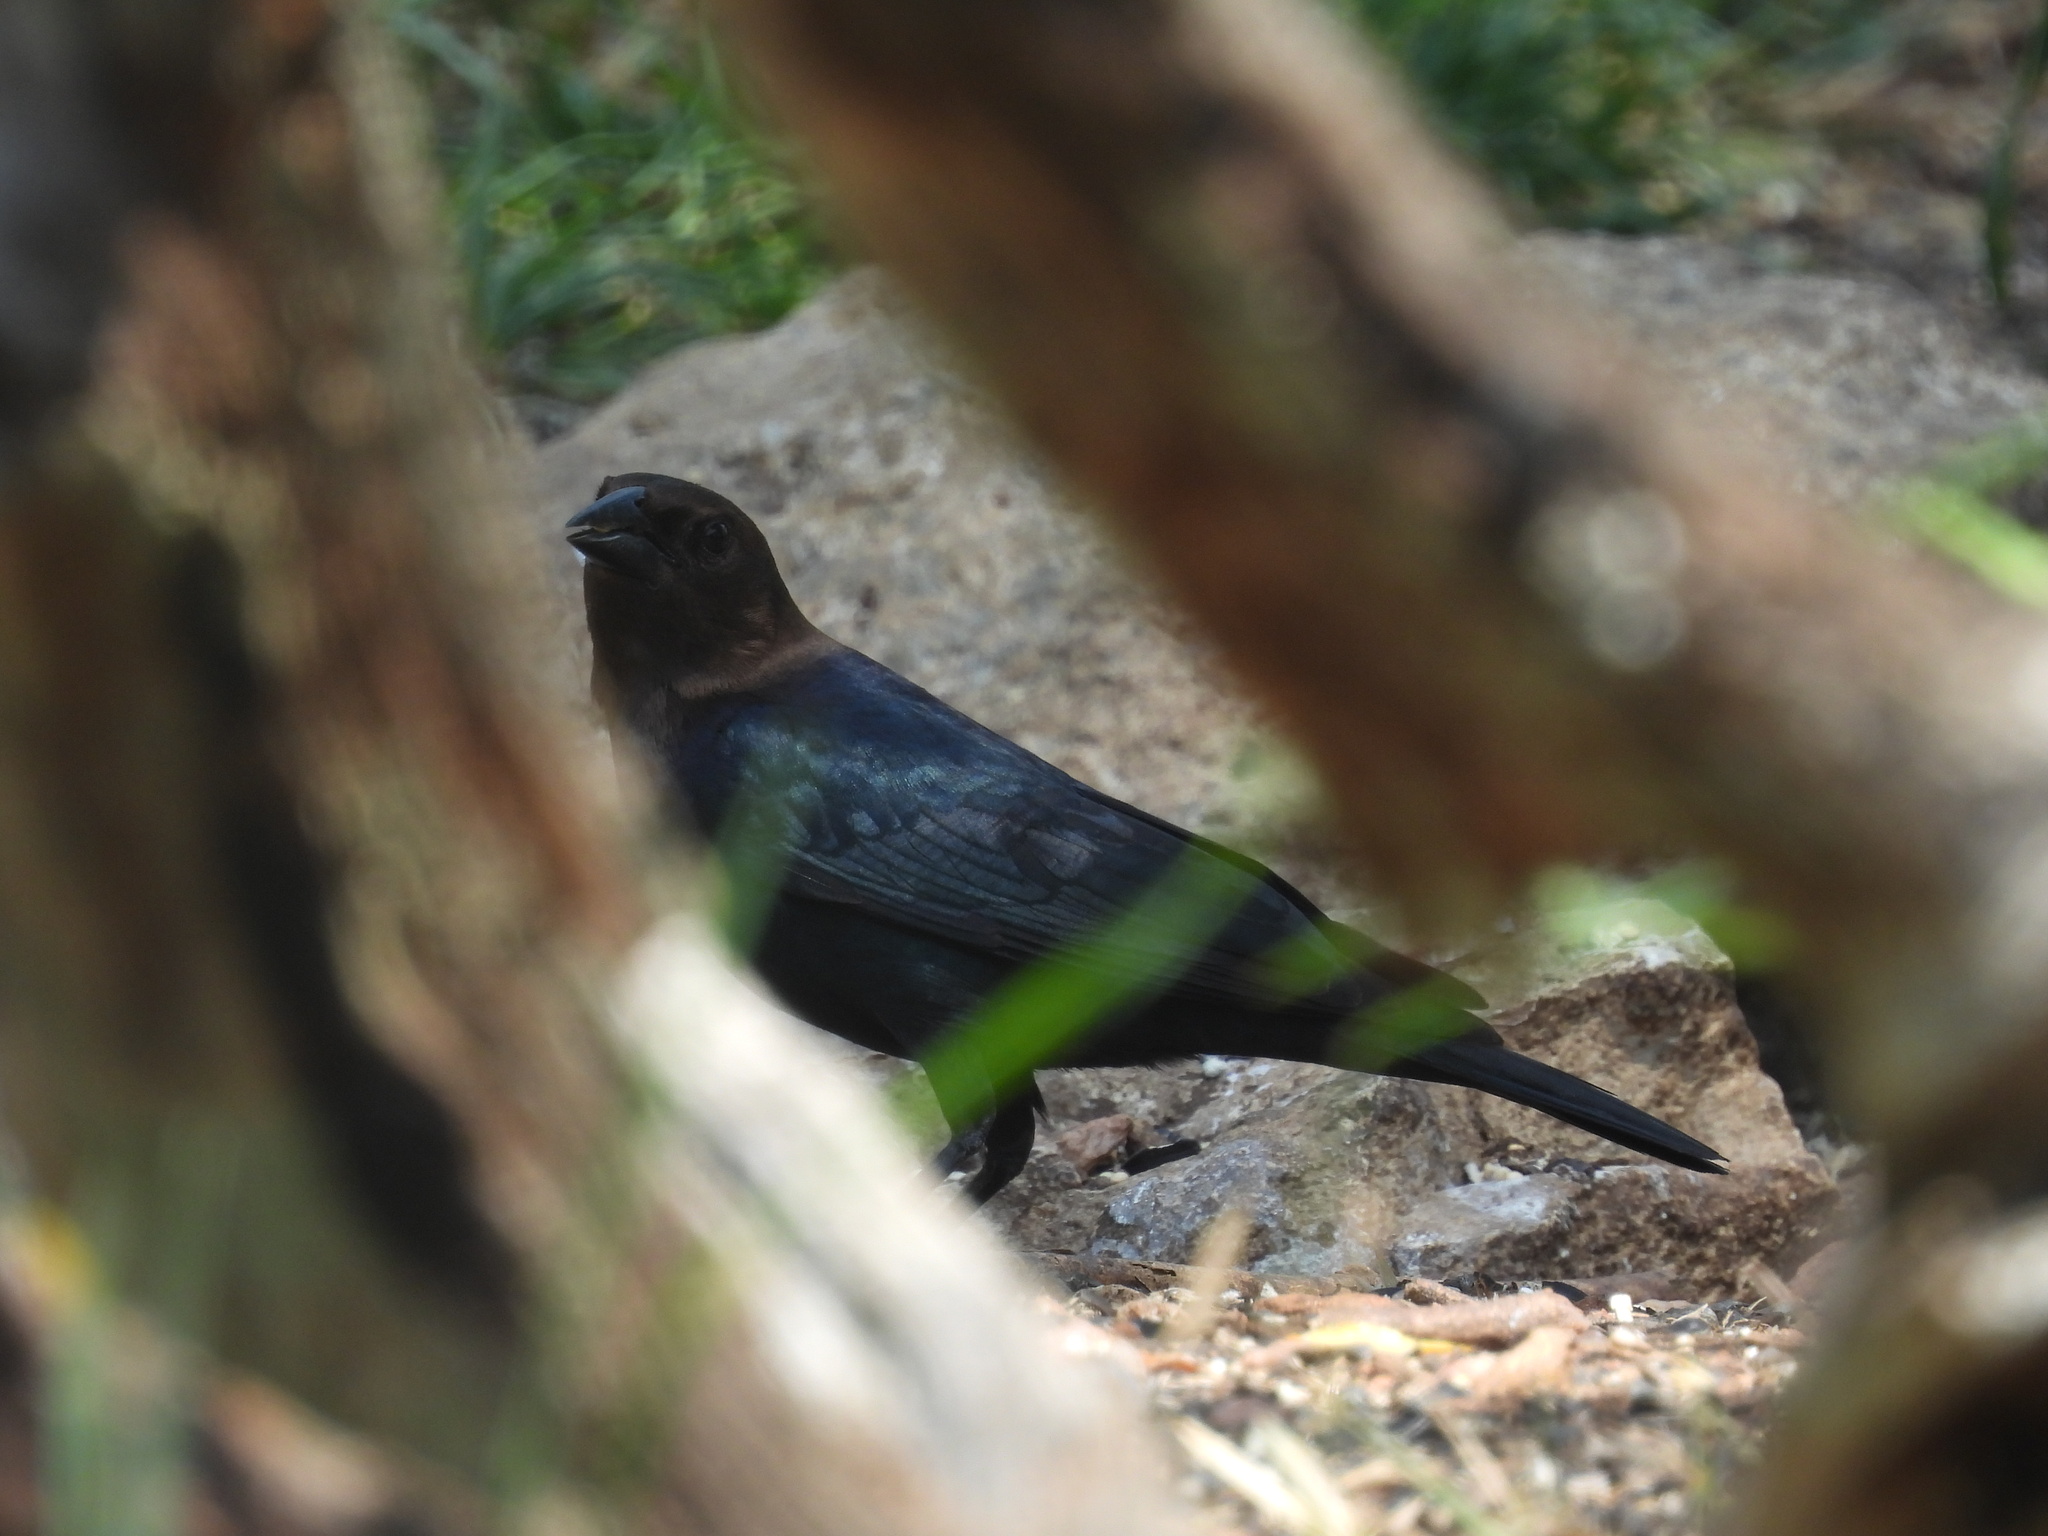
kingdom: Animalia
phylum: Chordata
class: Aves
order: Passeriformes
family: Icteridae
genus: Molothrus
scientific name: Molothrus ater
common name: Brown-headed cowbird
